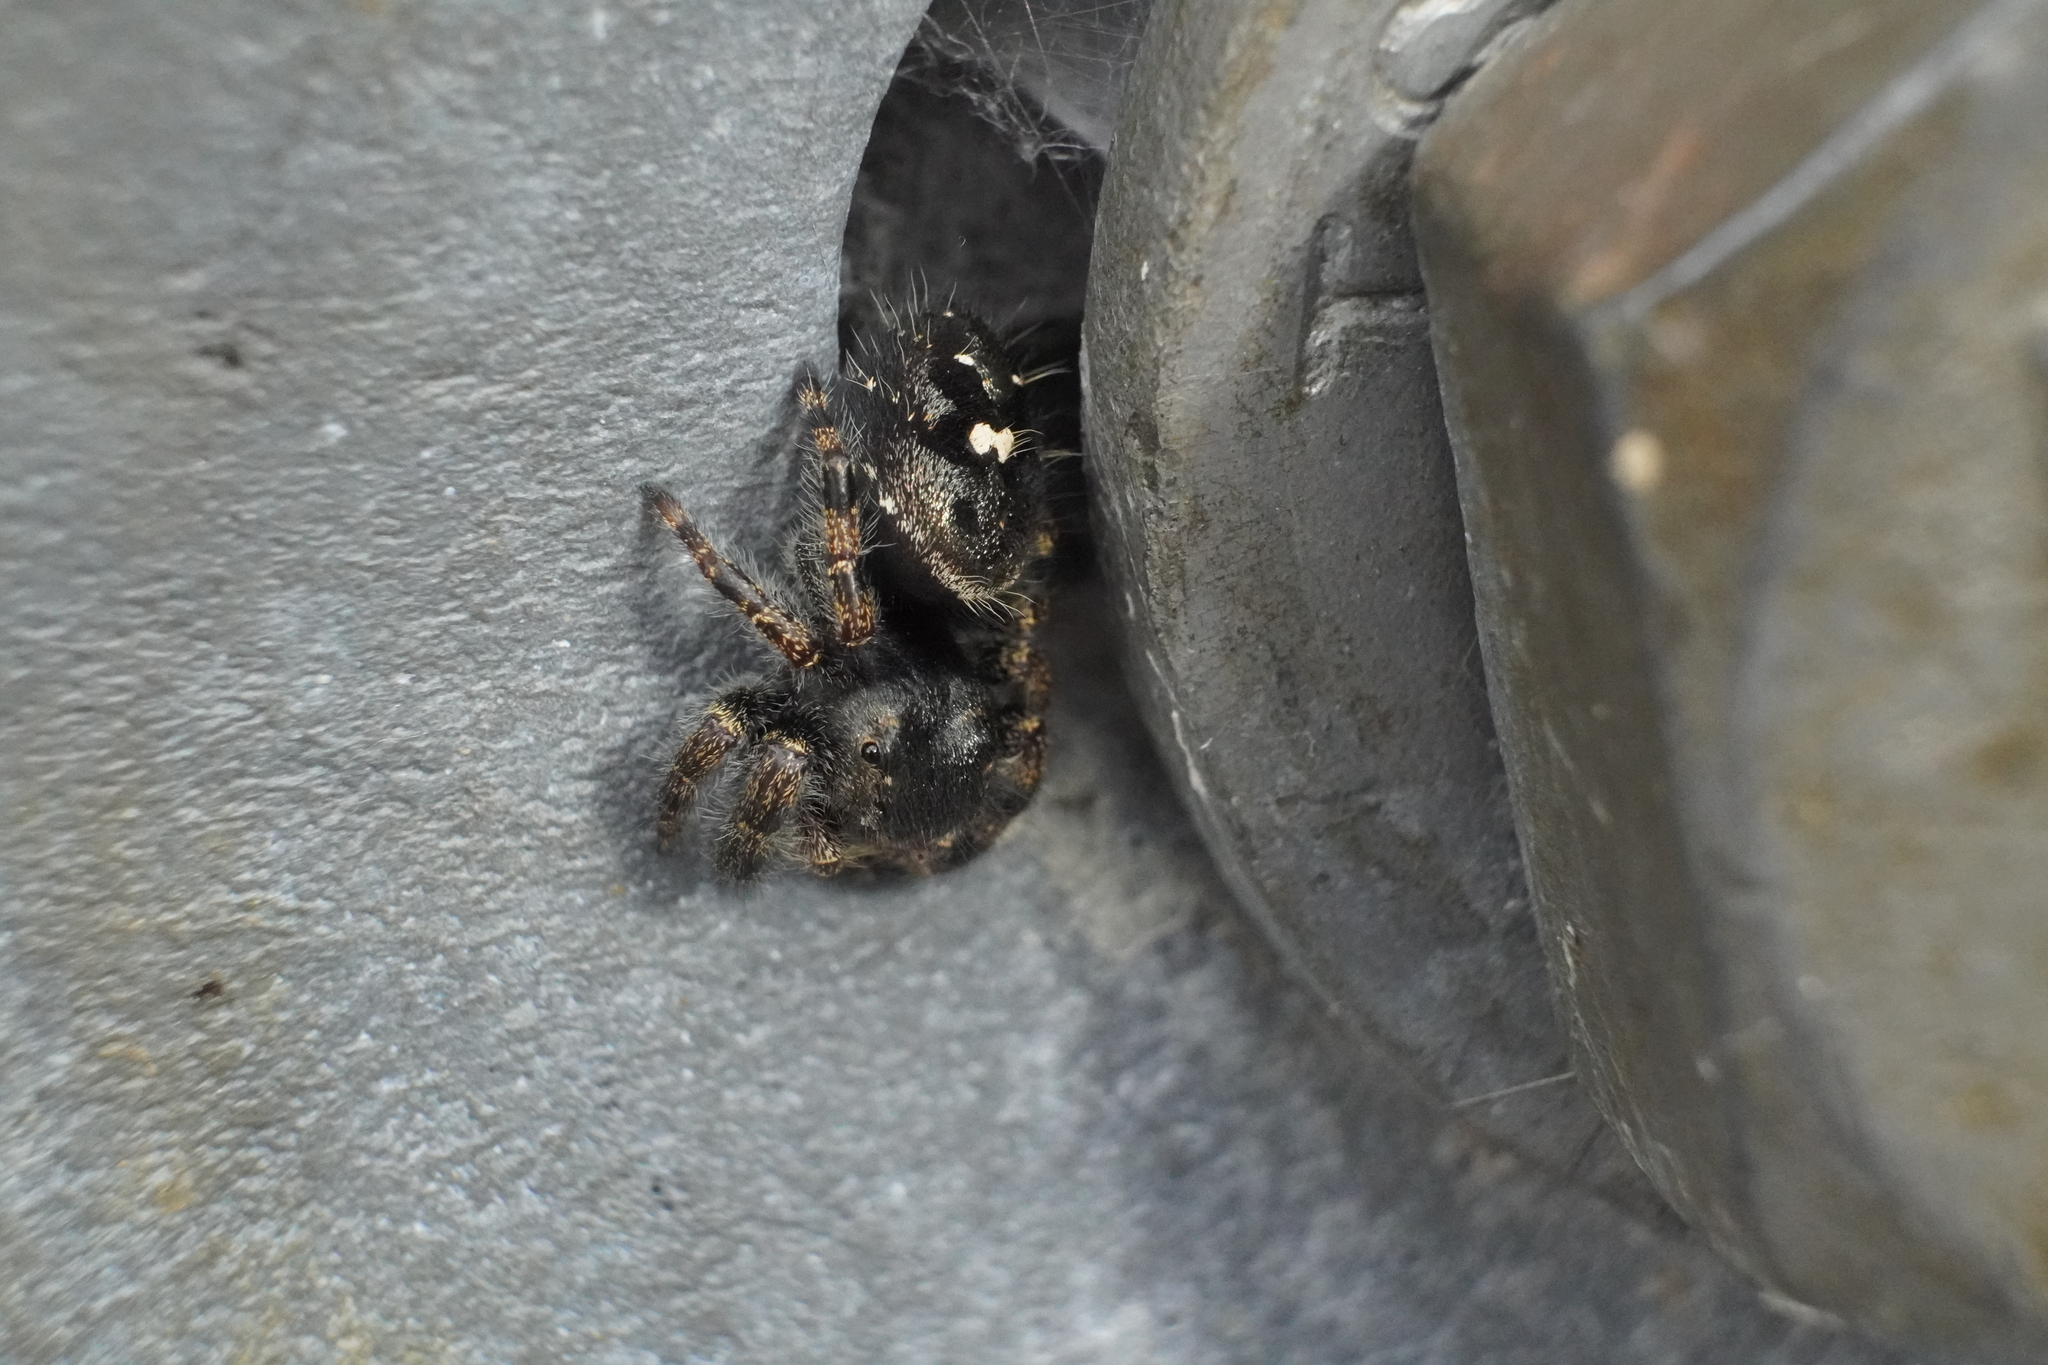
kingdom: Animalia
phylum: Arthropoda
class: Arachnida
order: Araneae
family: Salticidae
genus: Phidippus
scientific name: Phidippus audax
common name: Bold jumper
